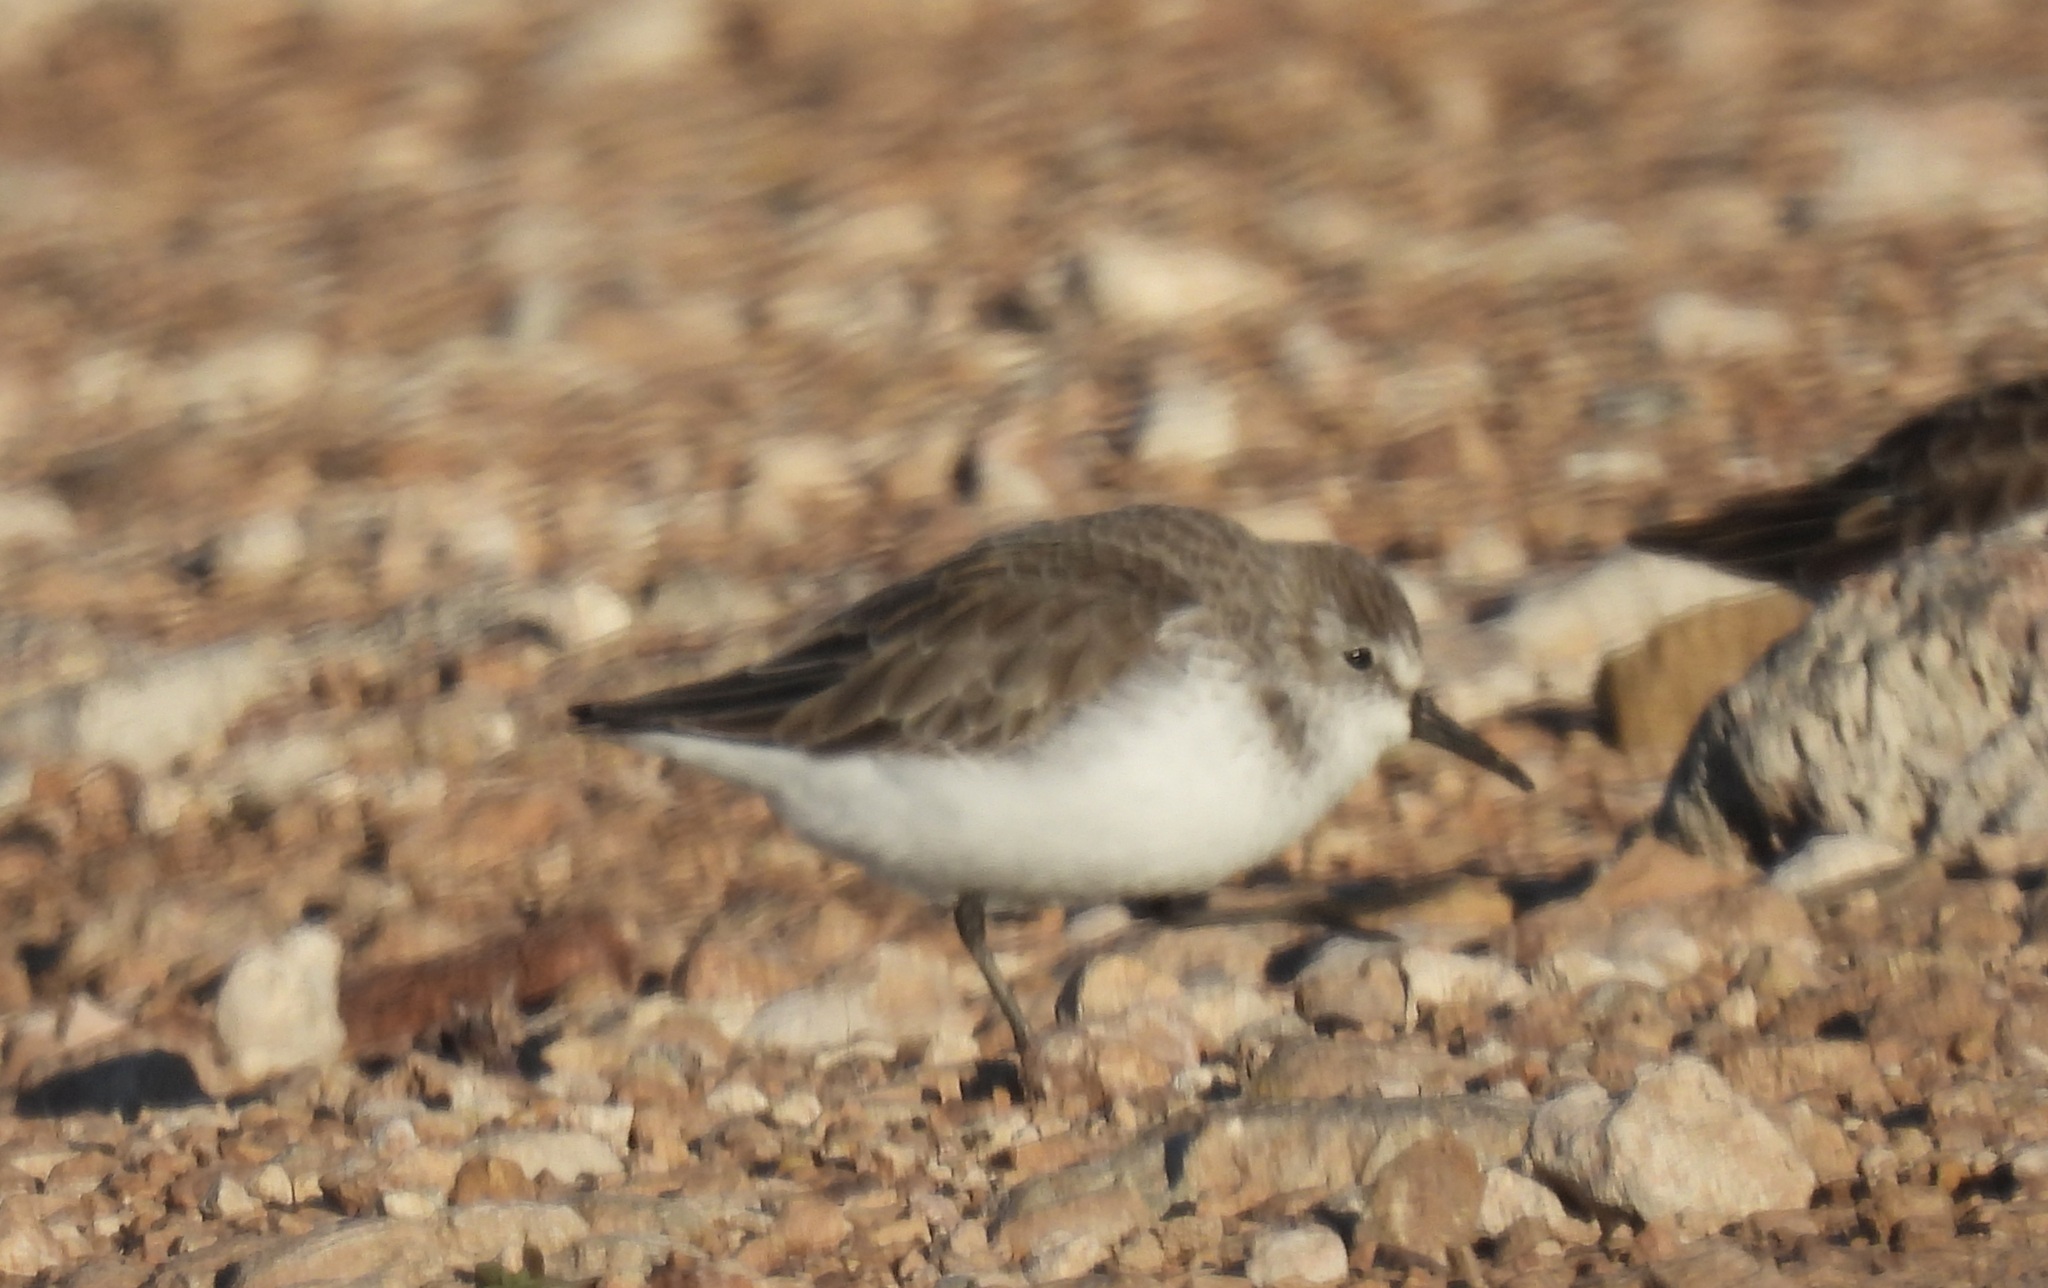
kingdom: Animalia
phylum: Chordata
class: Aves
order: Charadriiformes
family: Scolopacidae
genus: Calidris
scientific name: Calidris mauri
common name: Western sandpiper
